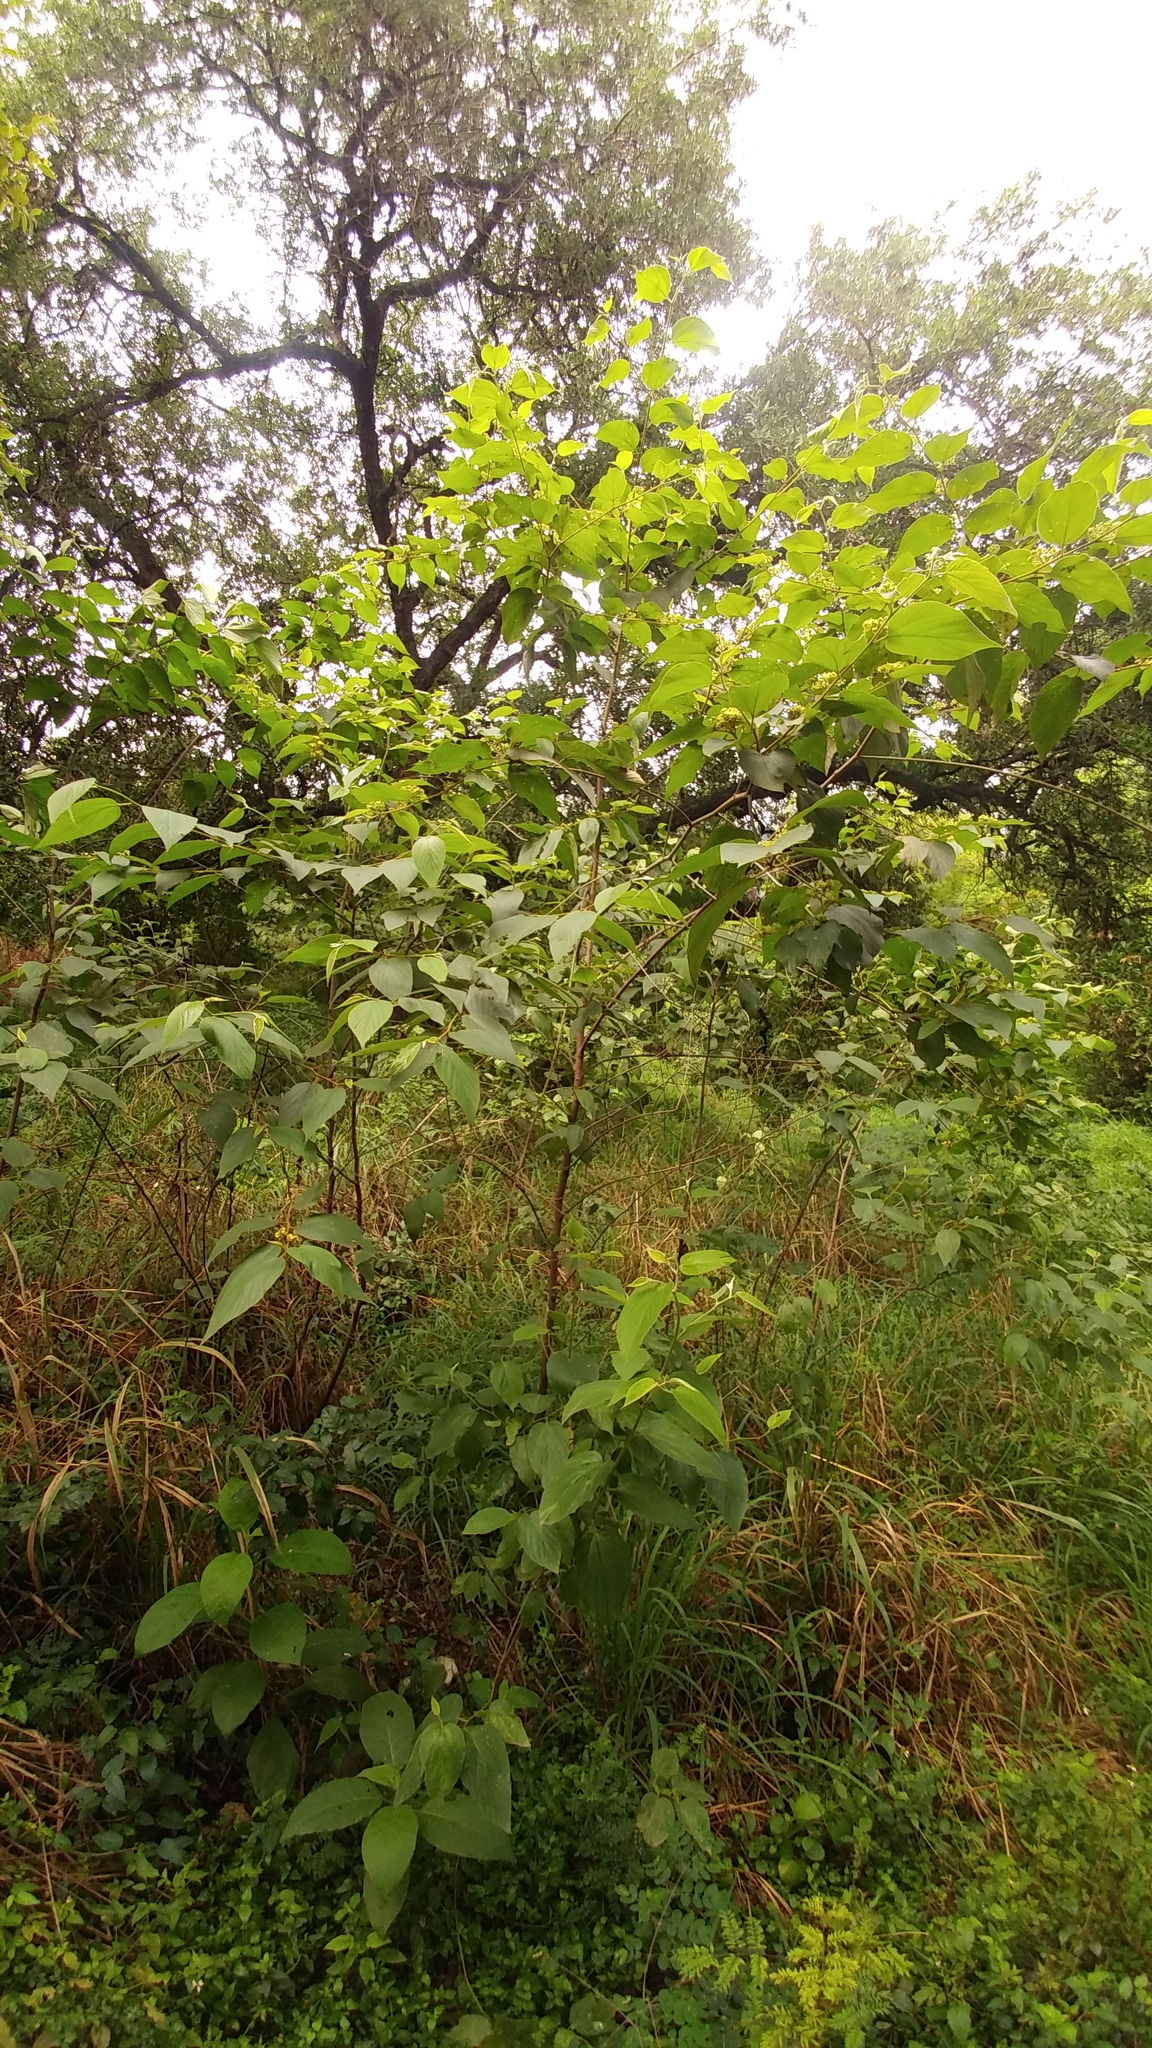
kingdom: Plantae
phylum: Tracheophyta
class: Magnoliopsida
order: Rosales
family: Rhamnaceae
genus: Colubrina
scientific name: Colubrina greggii
